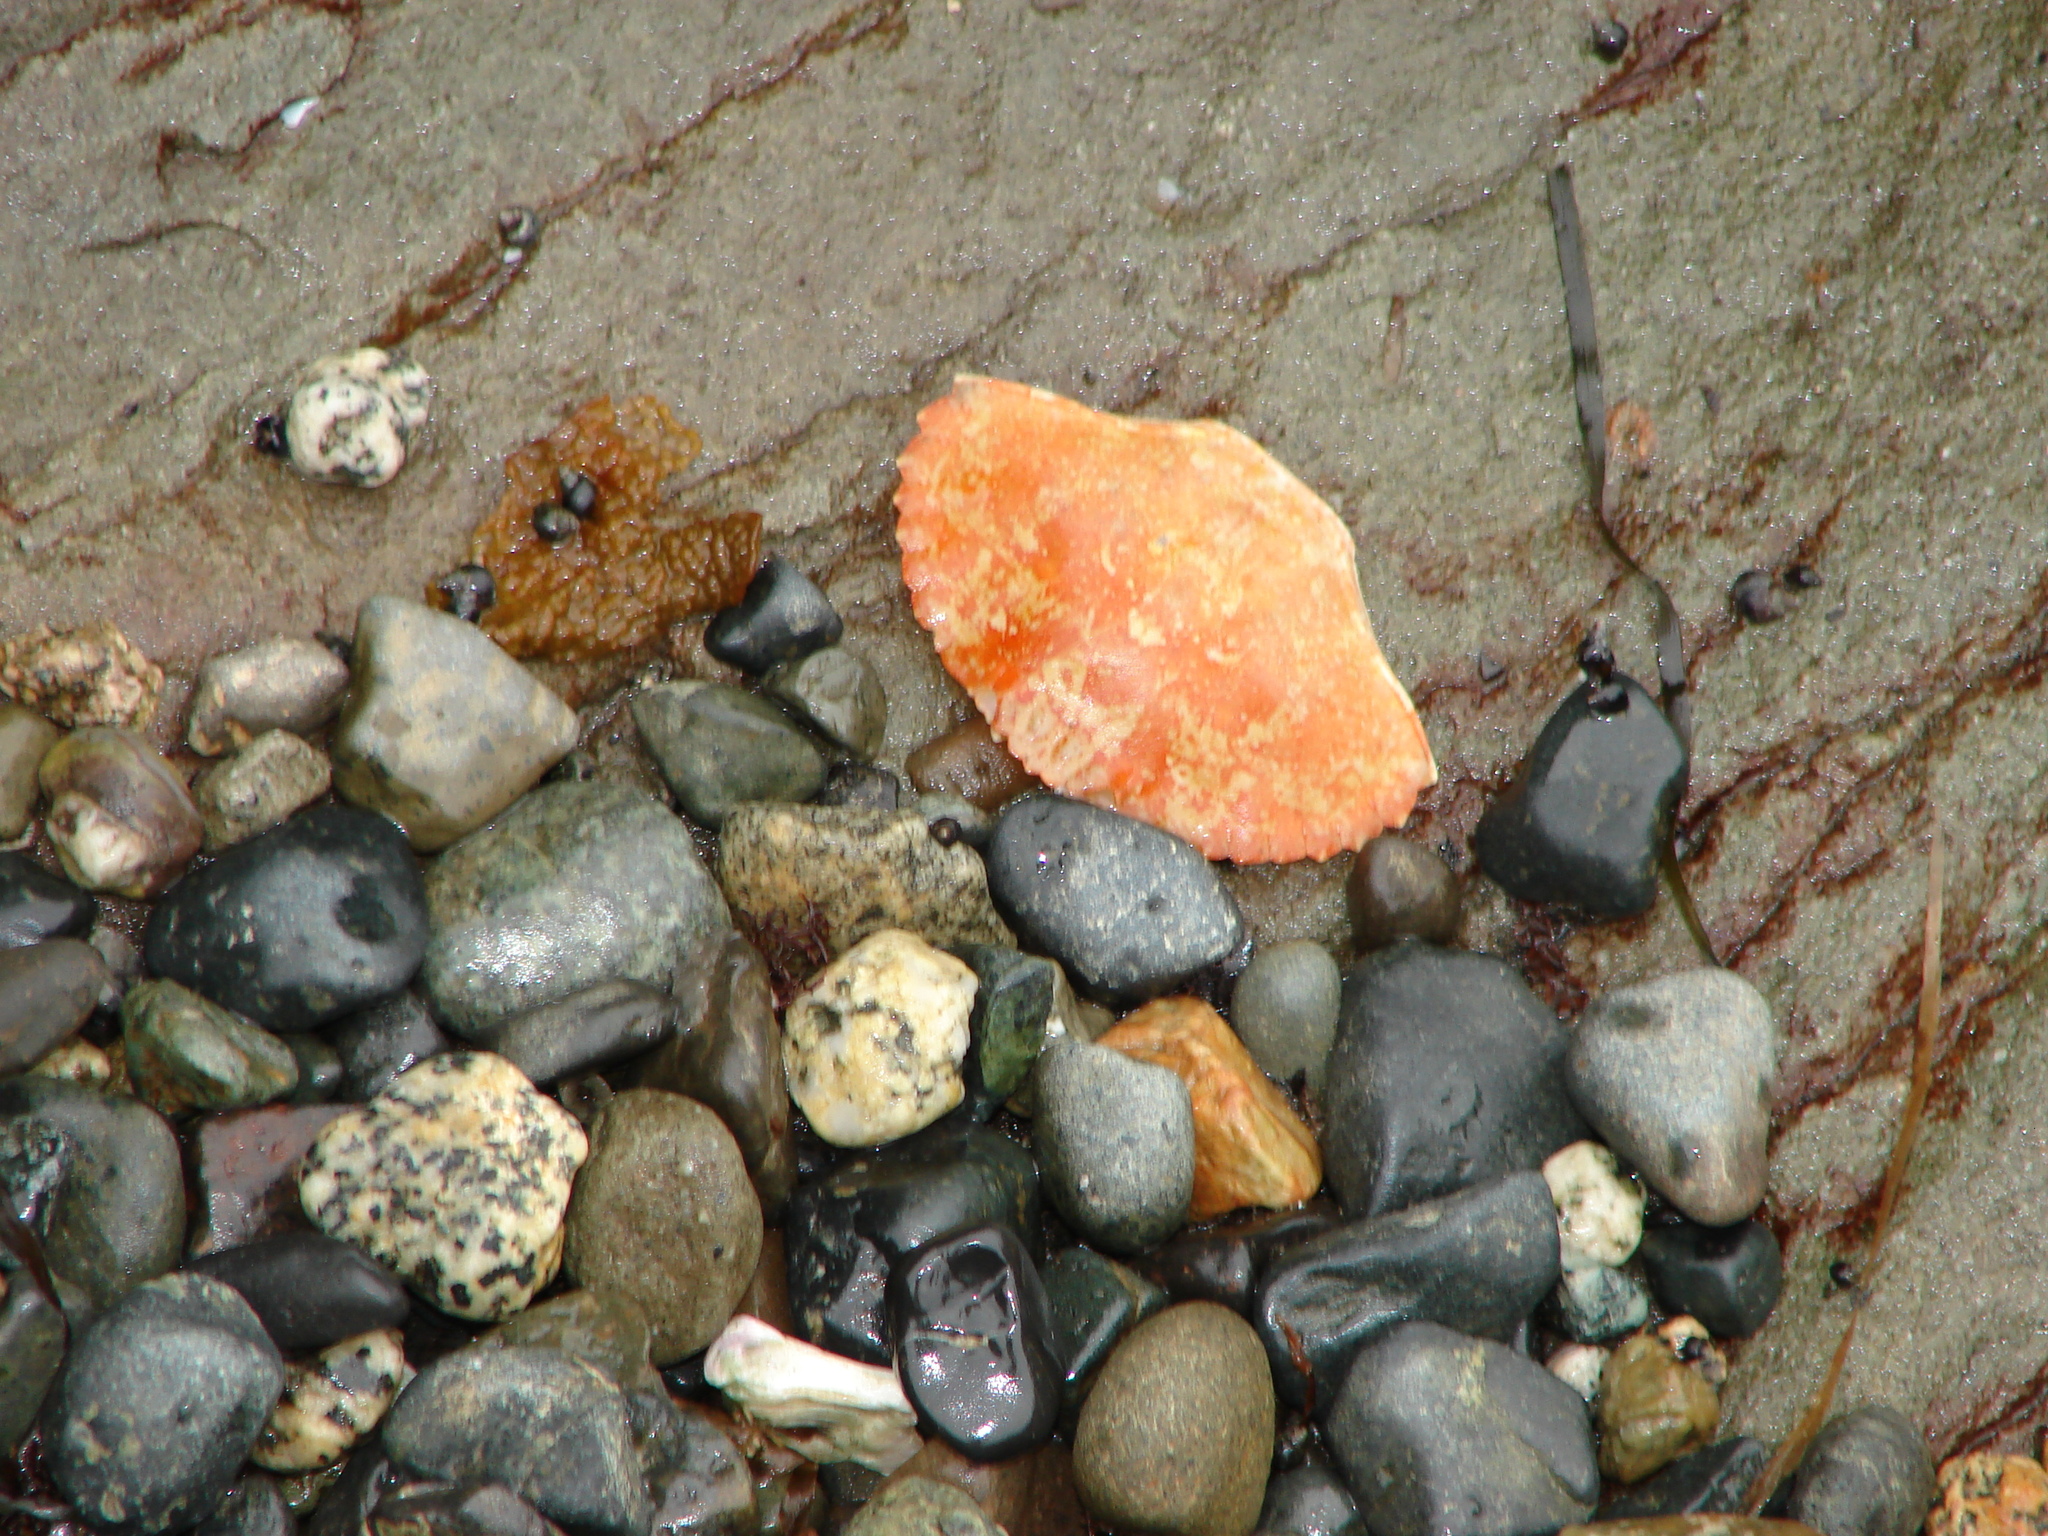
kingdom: Animalia
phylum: Arthropoda
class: Malacostraca
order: Decapoda
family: Cancridae
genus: Cancer
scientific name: Cancer productus
